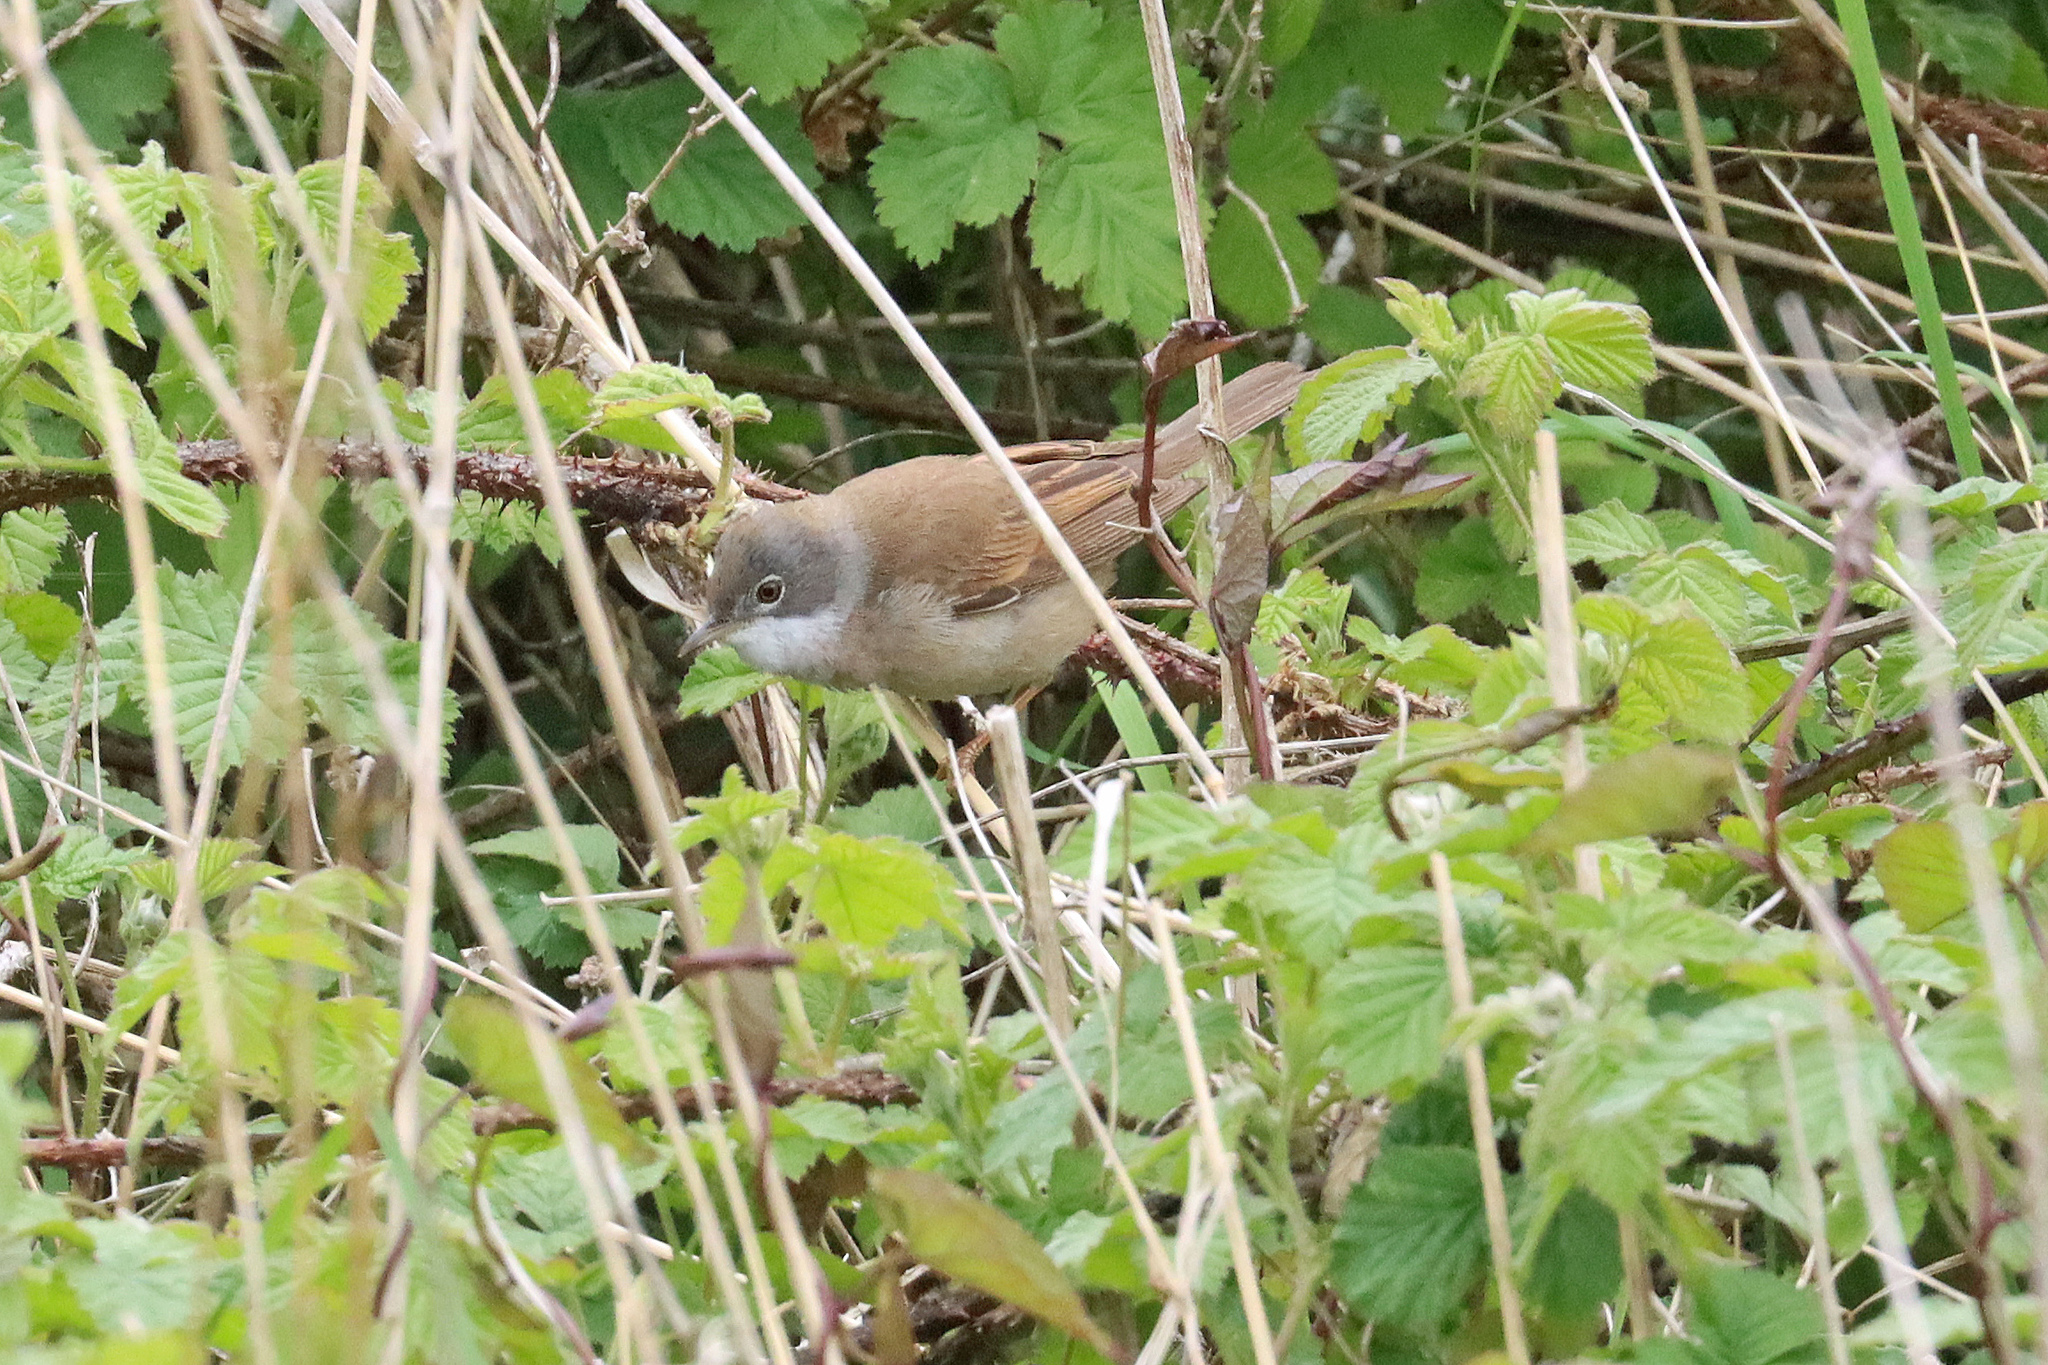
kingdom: Animalia
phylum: Chordata
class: Aves
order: Passeriformes
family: Sylviidae
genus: Sylvia
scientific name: Sylvia communis
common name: Common whitethroat
